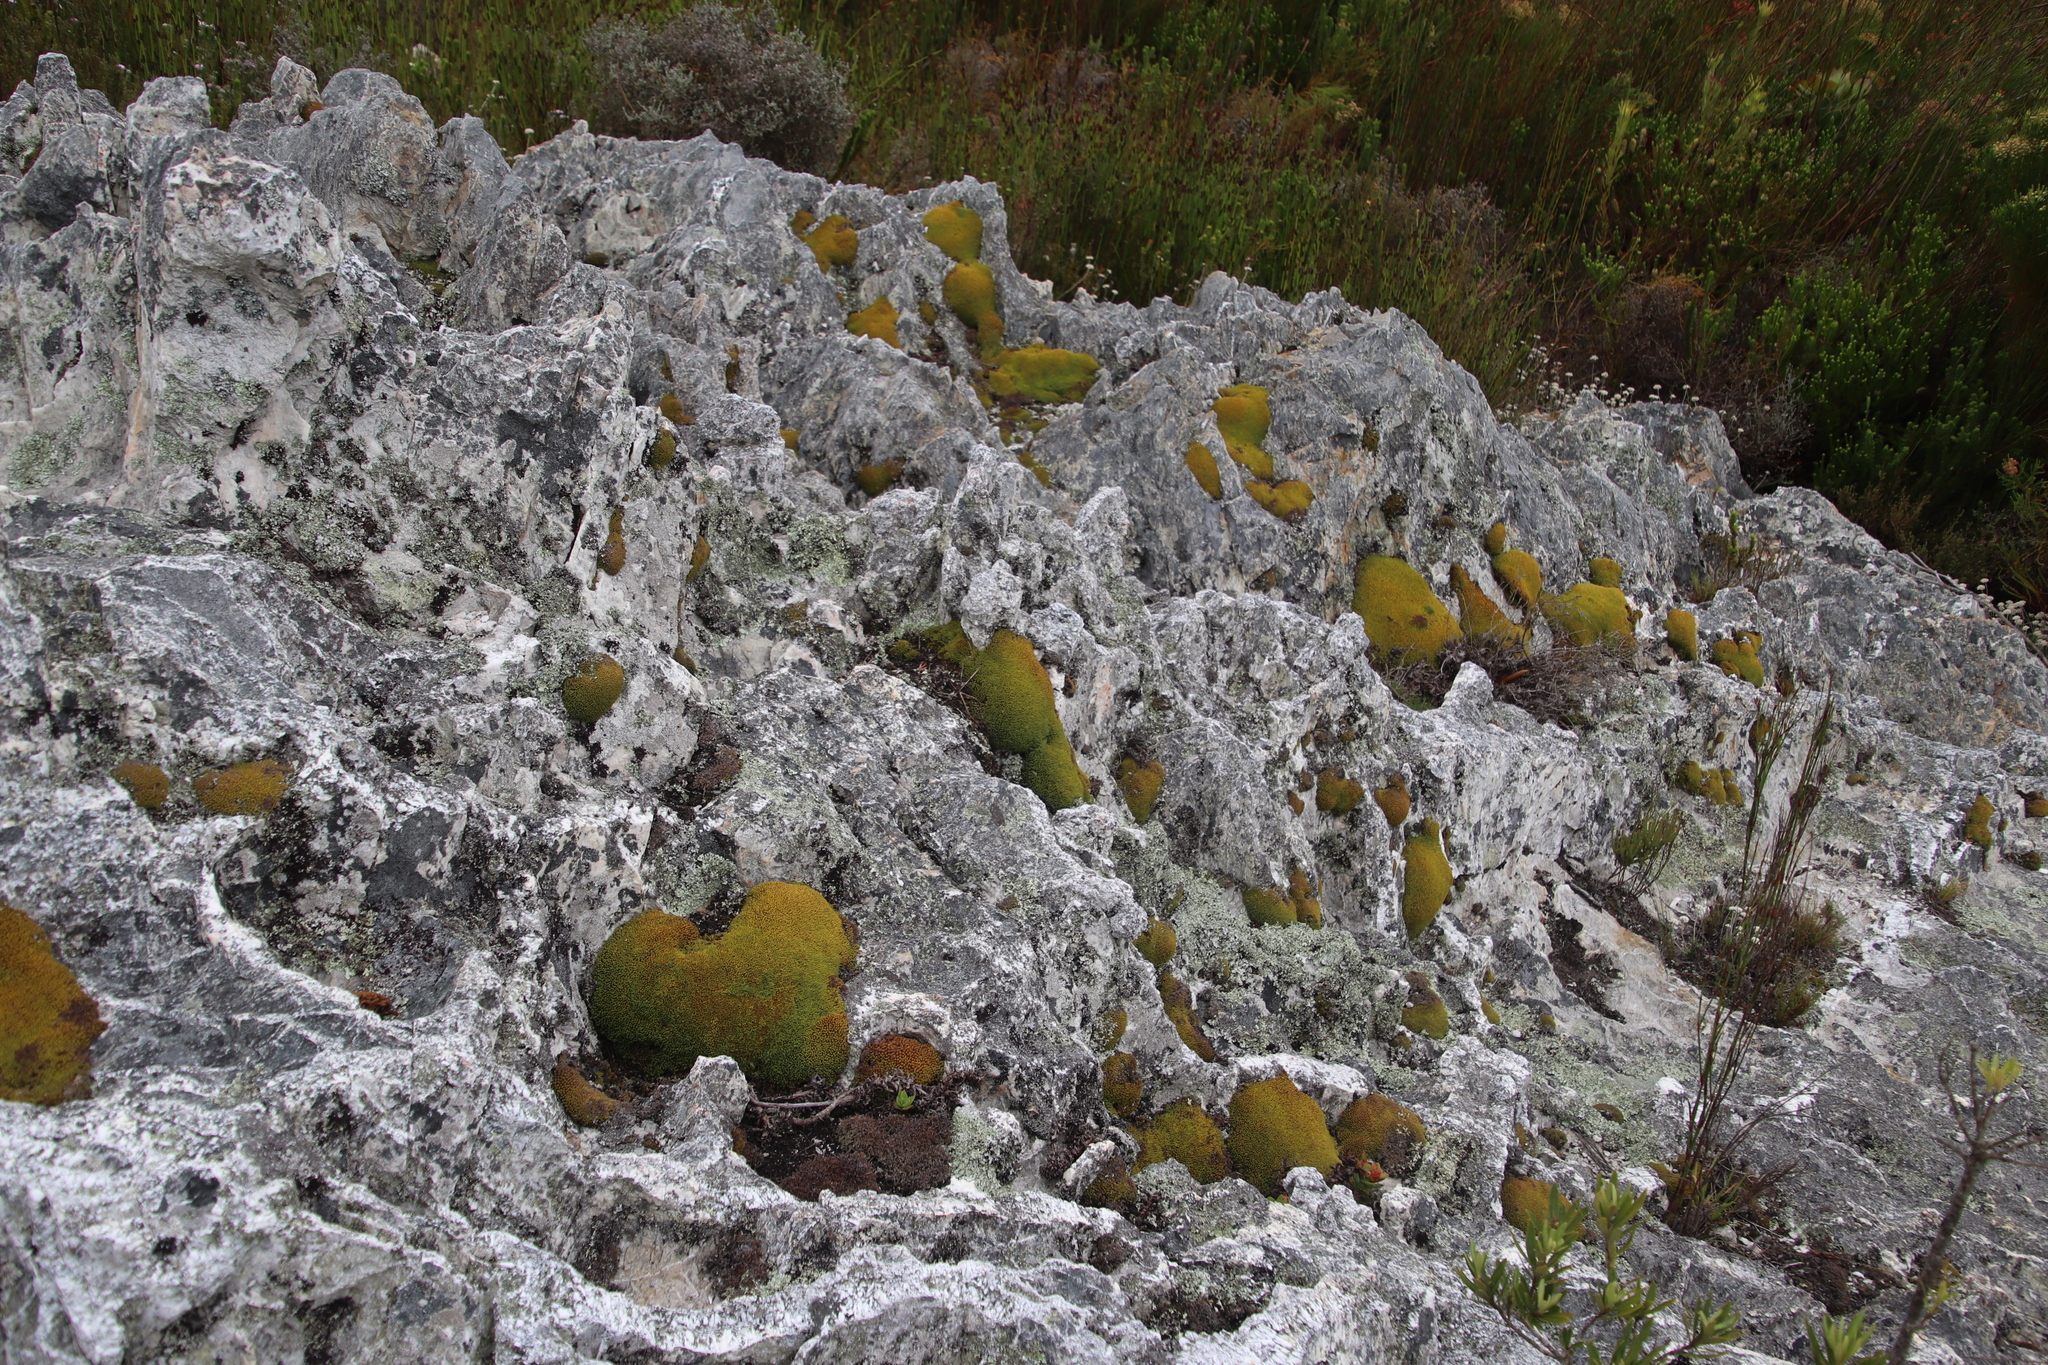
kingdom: Plantae
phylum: Bryophyta
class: Bryopsida
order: Dicranales
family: Hypodontiaceae
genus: Hypodontium
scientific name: Hypodontium pomiforme
